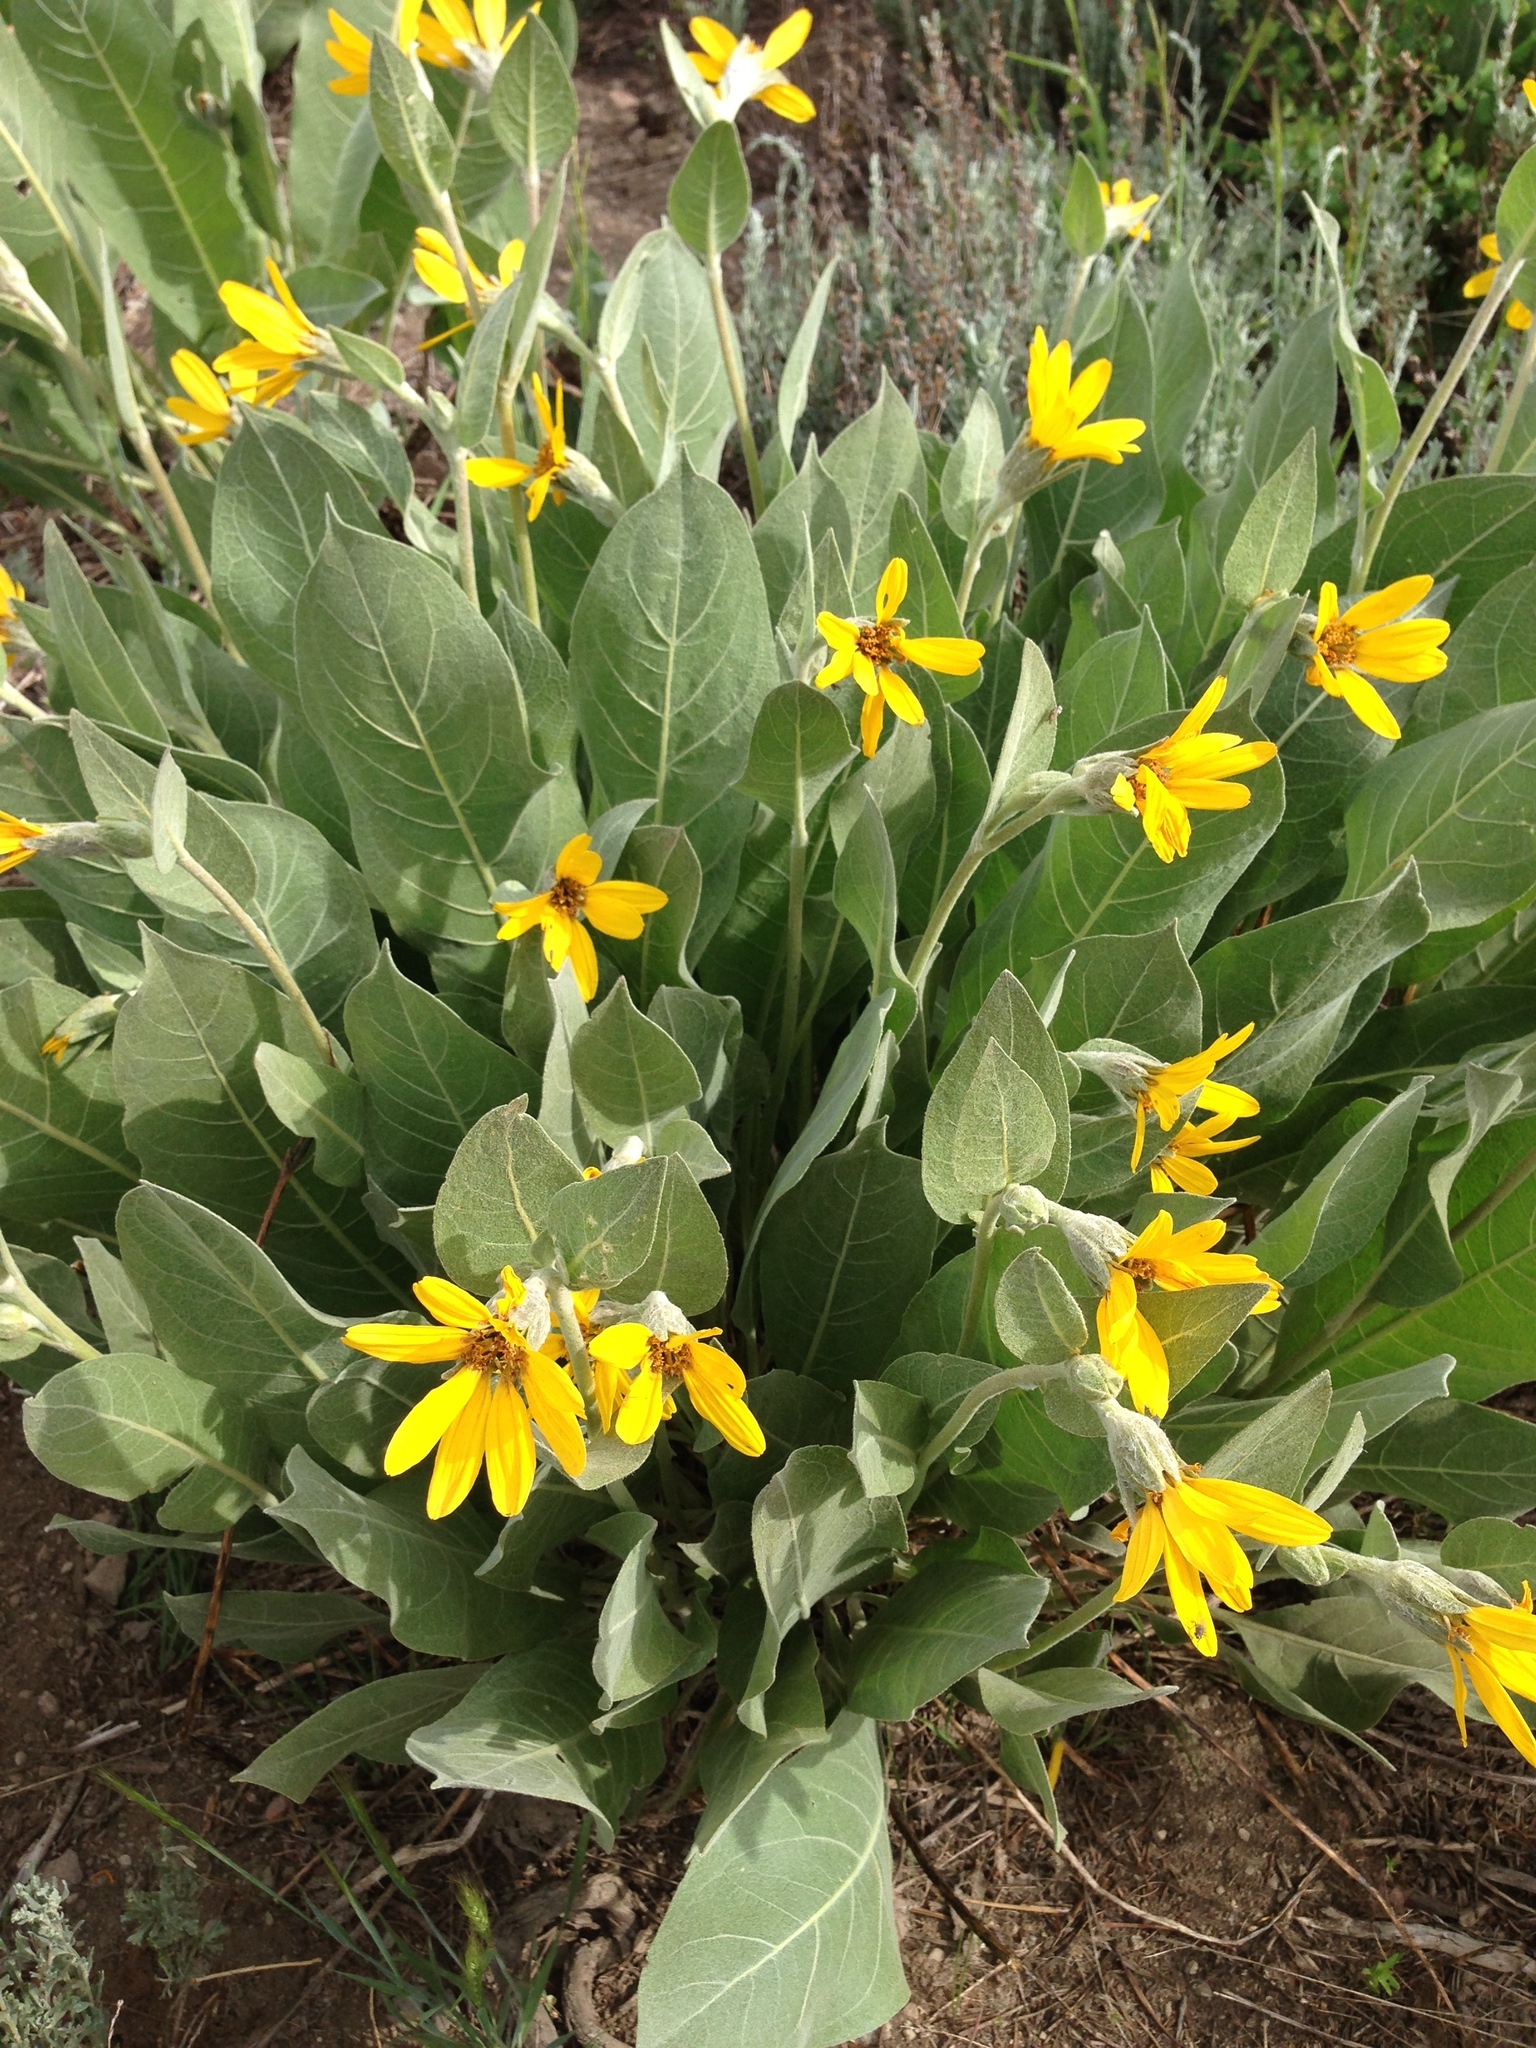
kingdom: Plantae
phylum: Tracheophyta
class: Magnoliopsida
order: Asterales
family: Asteraceae
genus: Wyethia
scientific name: Wyethia mollis
